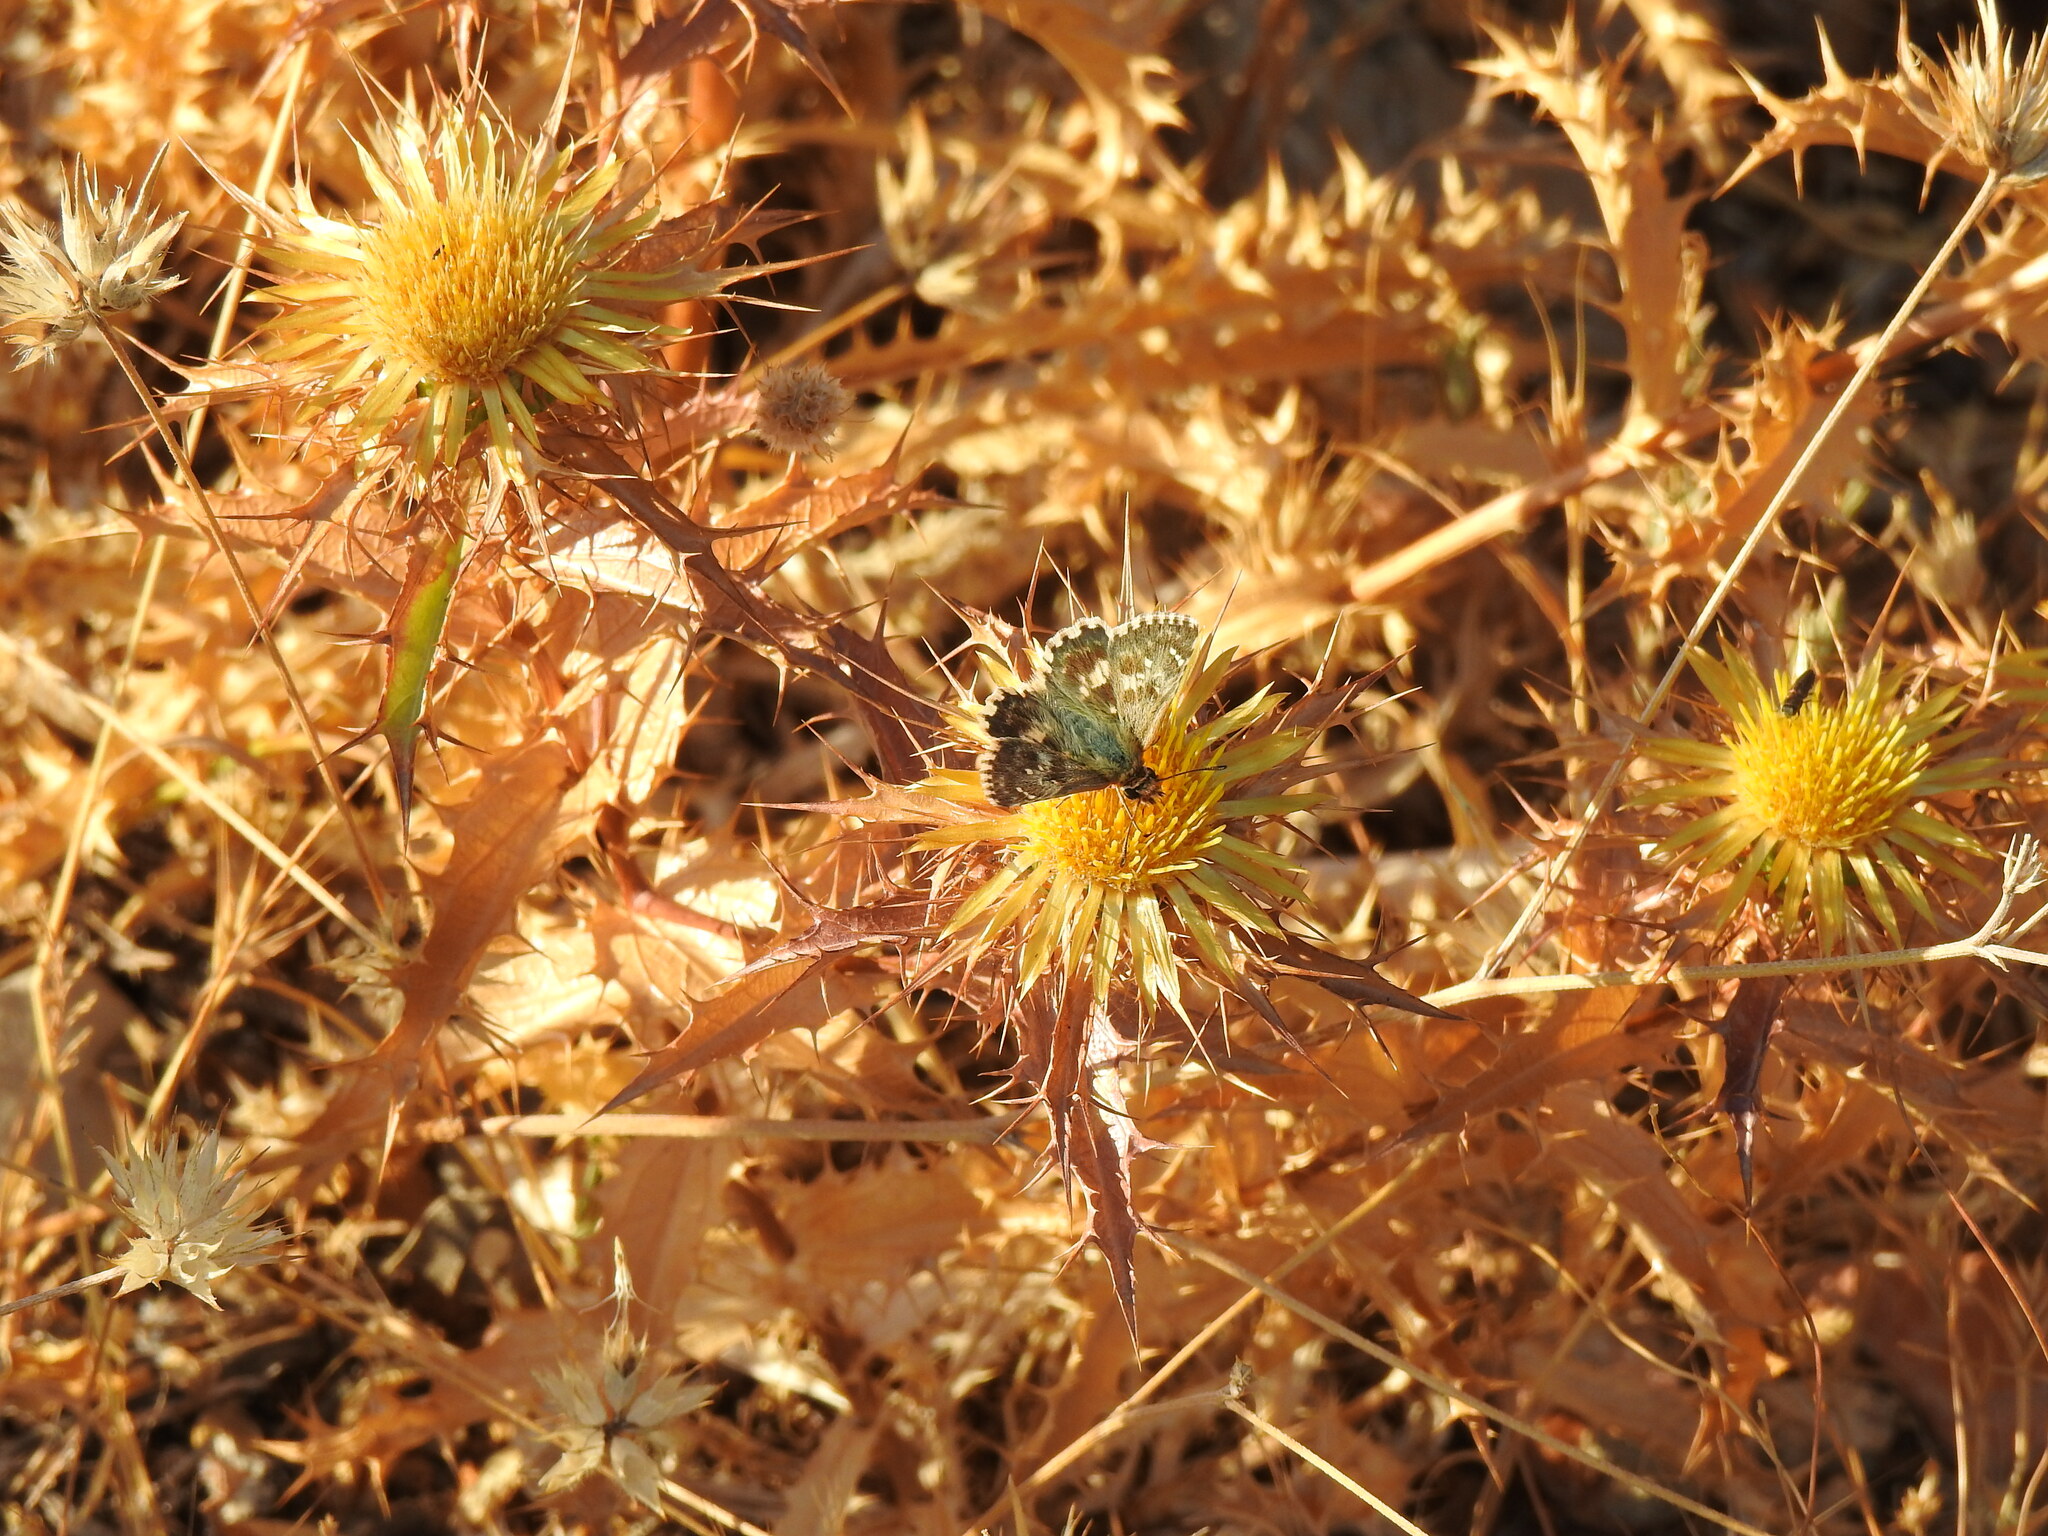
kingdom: Animalia
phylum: Arthropoda
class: Insecta
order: Lepidoptera
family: Hesperiidae
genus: Syrichtus
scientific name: Syrichtus Muschampia proto
